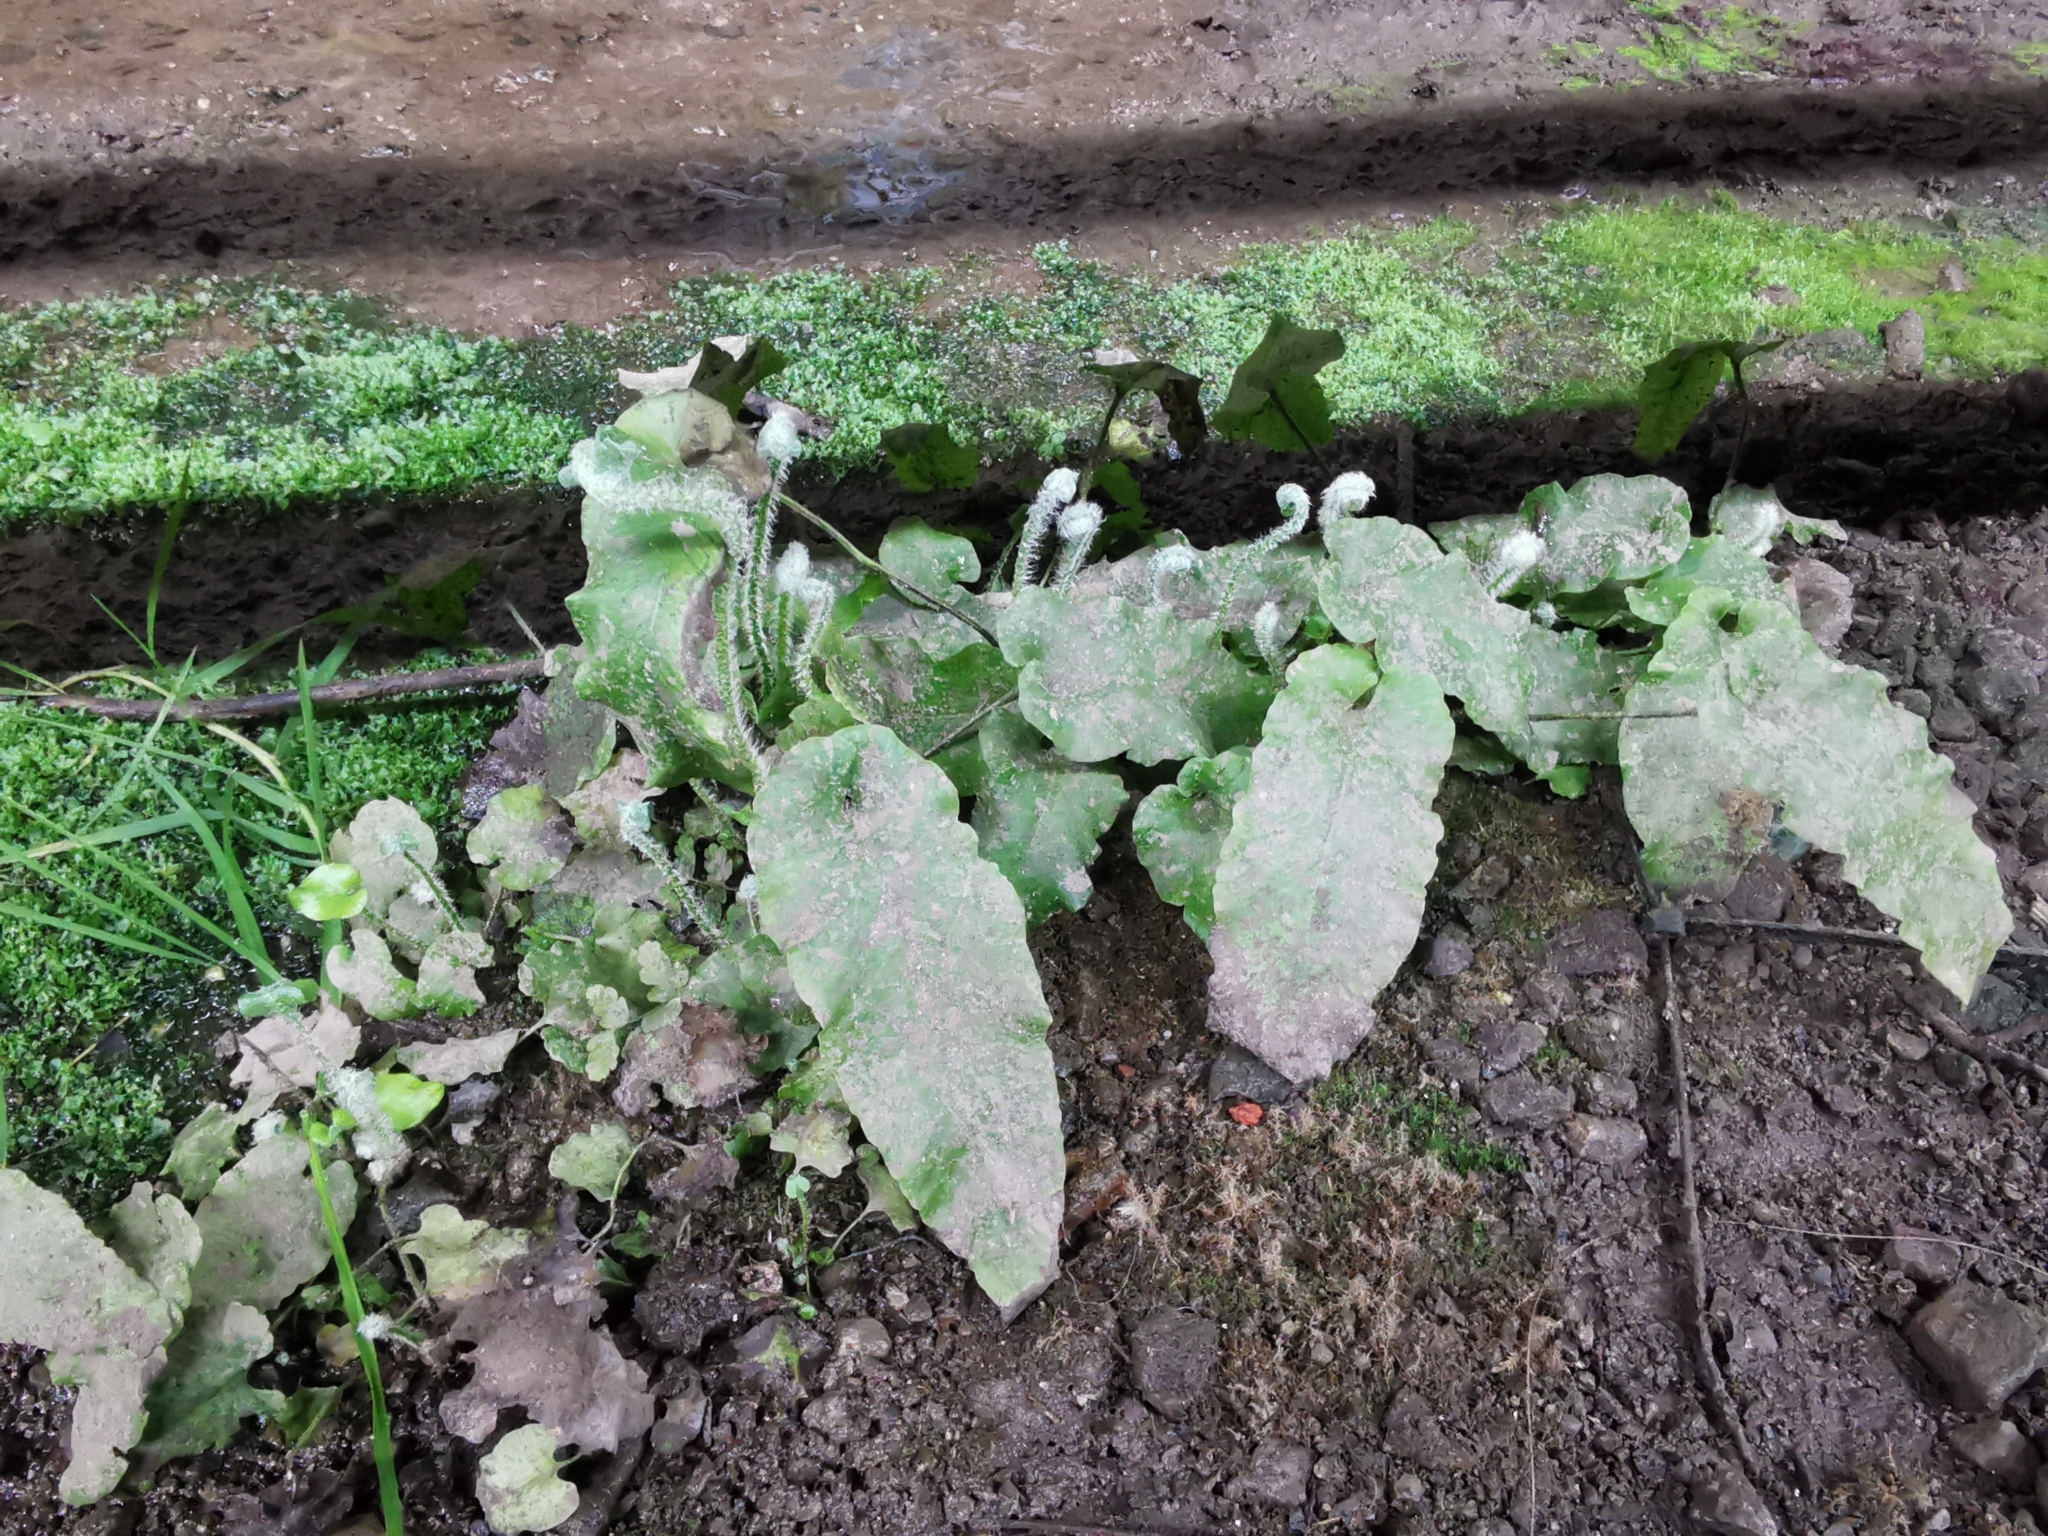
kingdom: Plantae
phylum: Tracheophyta
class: Polypodiopsida
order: Polypodiales
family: Aspleniaceae
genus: Asplenium
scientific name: Asplenium scolopendrium
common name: Hart's-tongue fern
